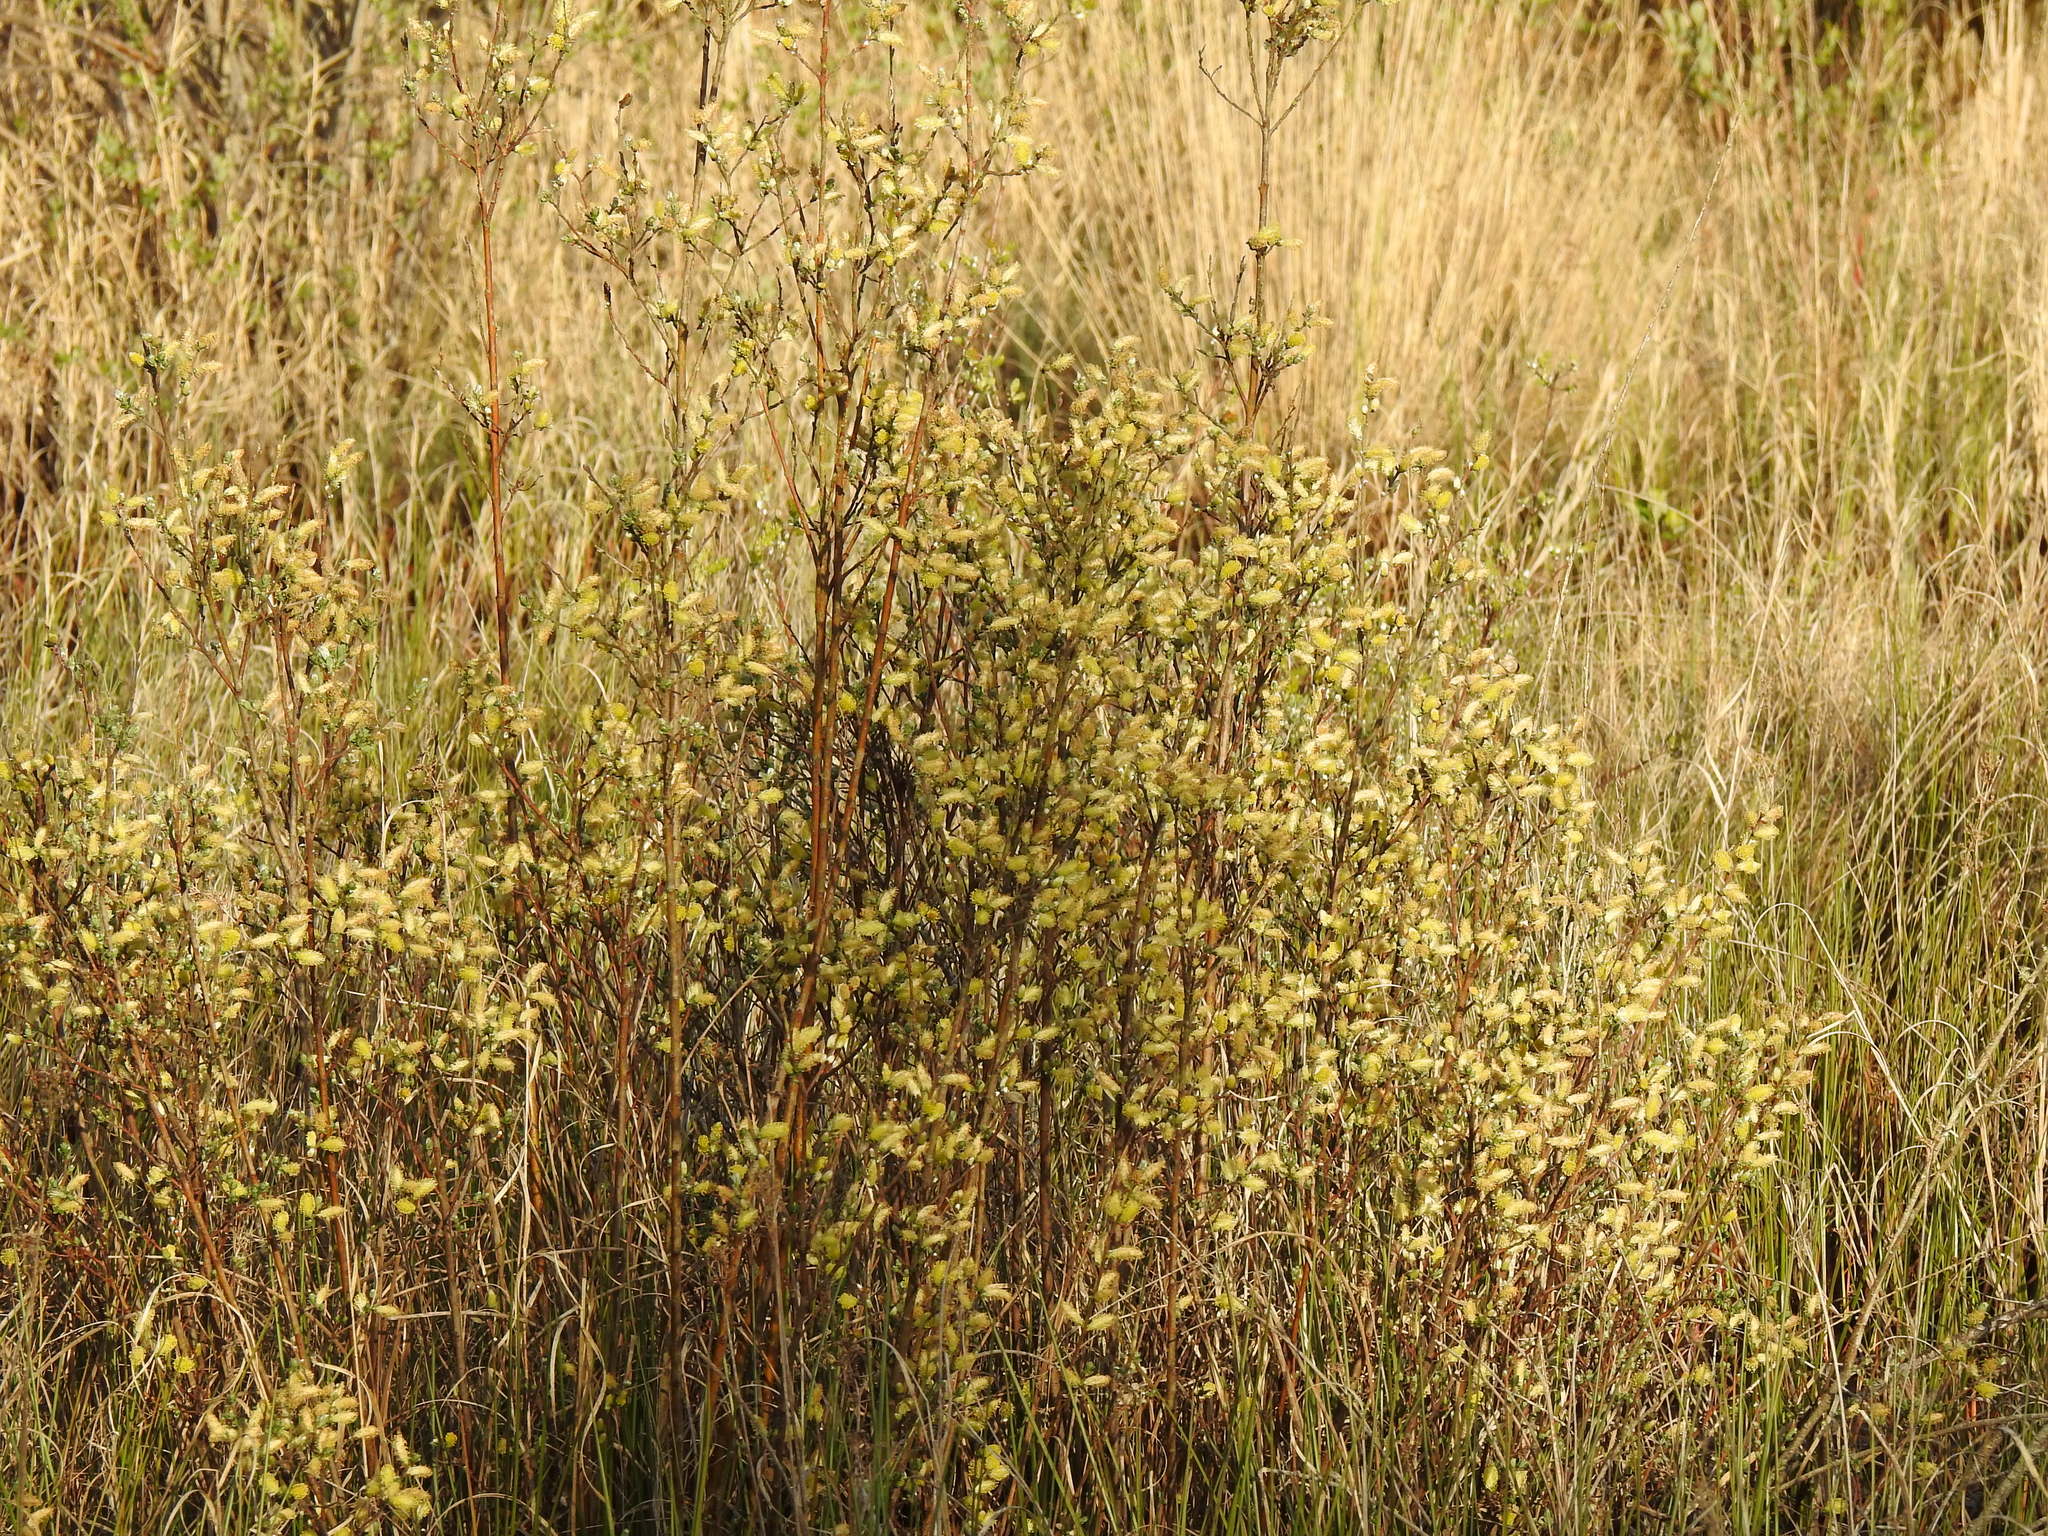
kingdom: Plantae
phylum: Tracheophyta
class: Magnoliopsida
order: Malpighiales
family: Salicaceae
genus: Salix
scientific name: Salix repens
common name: Creeping willow
